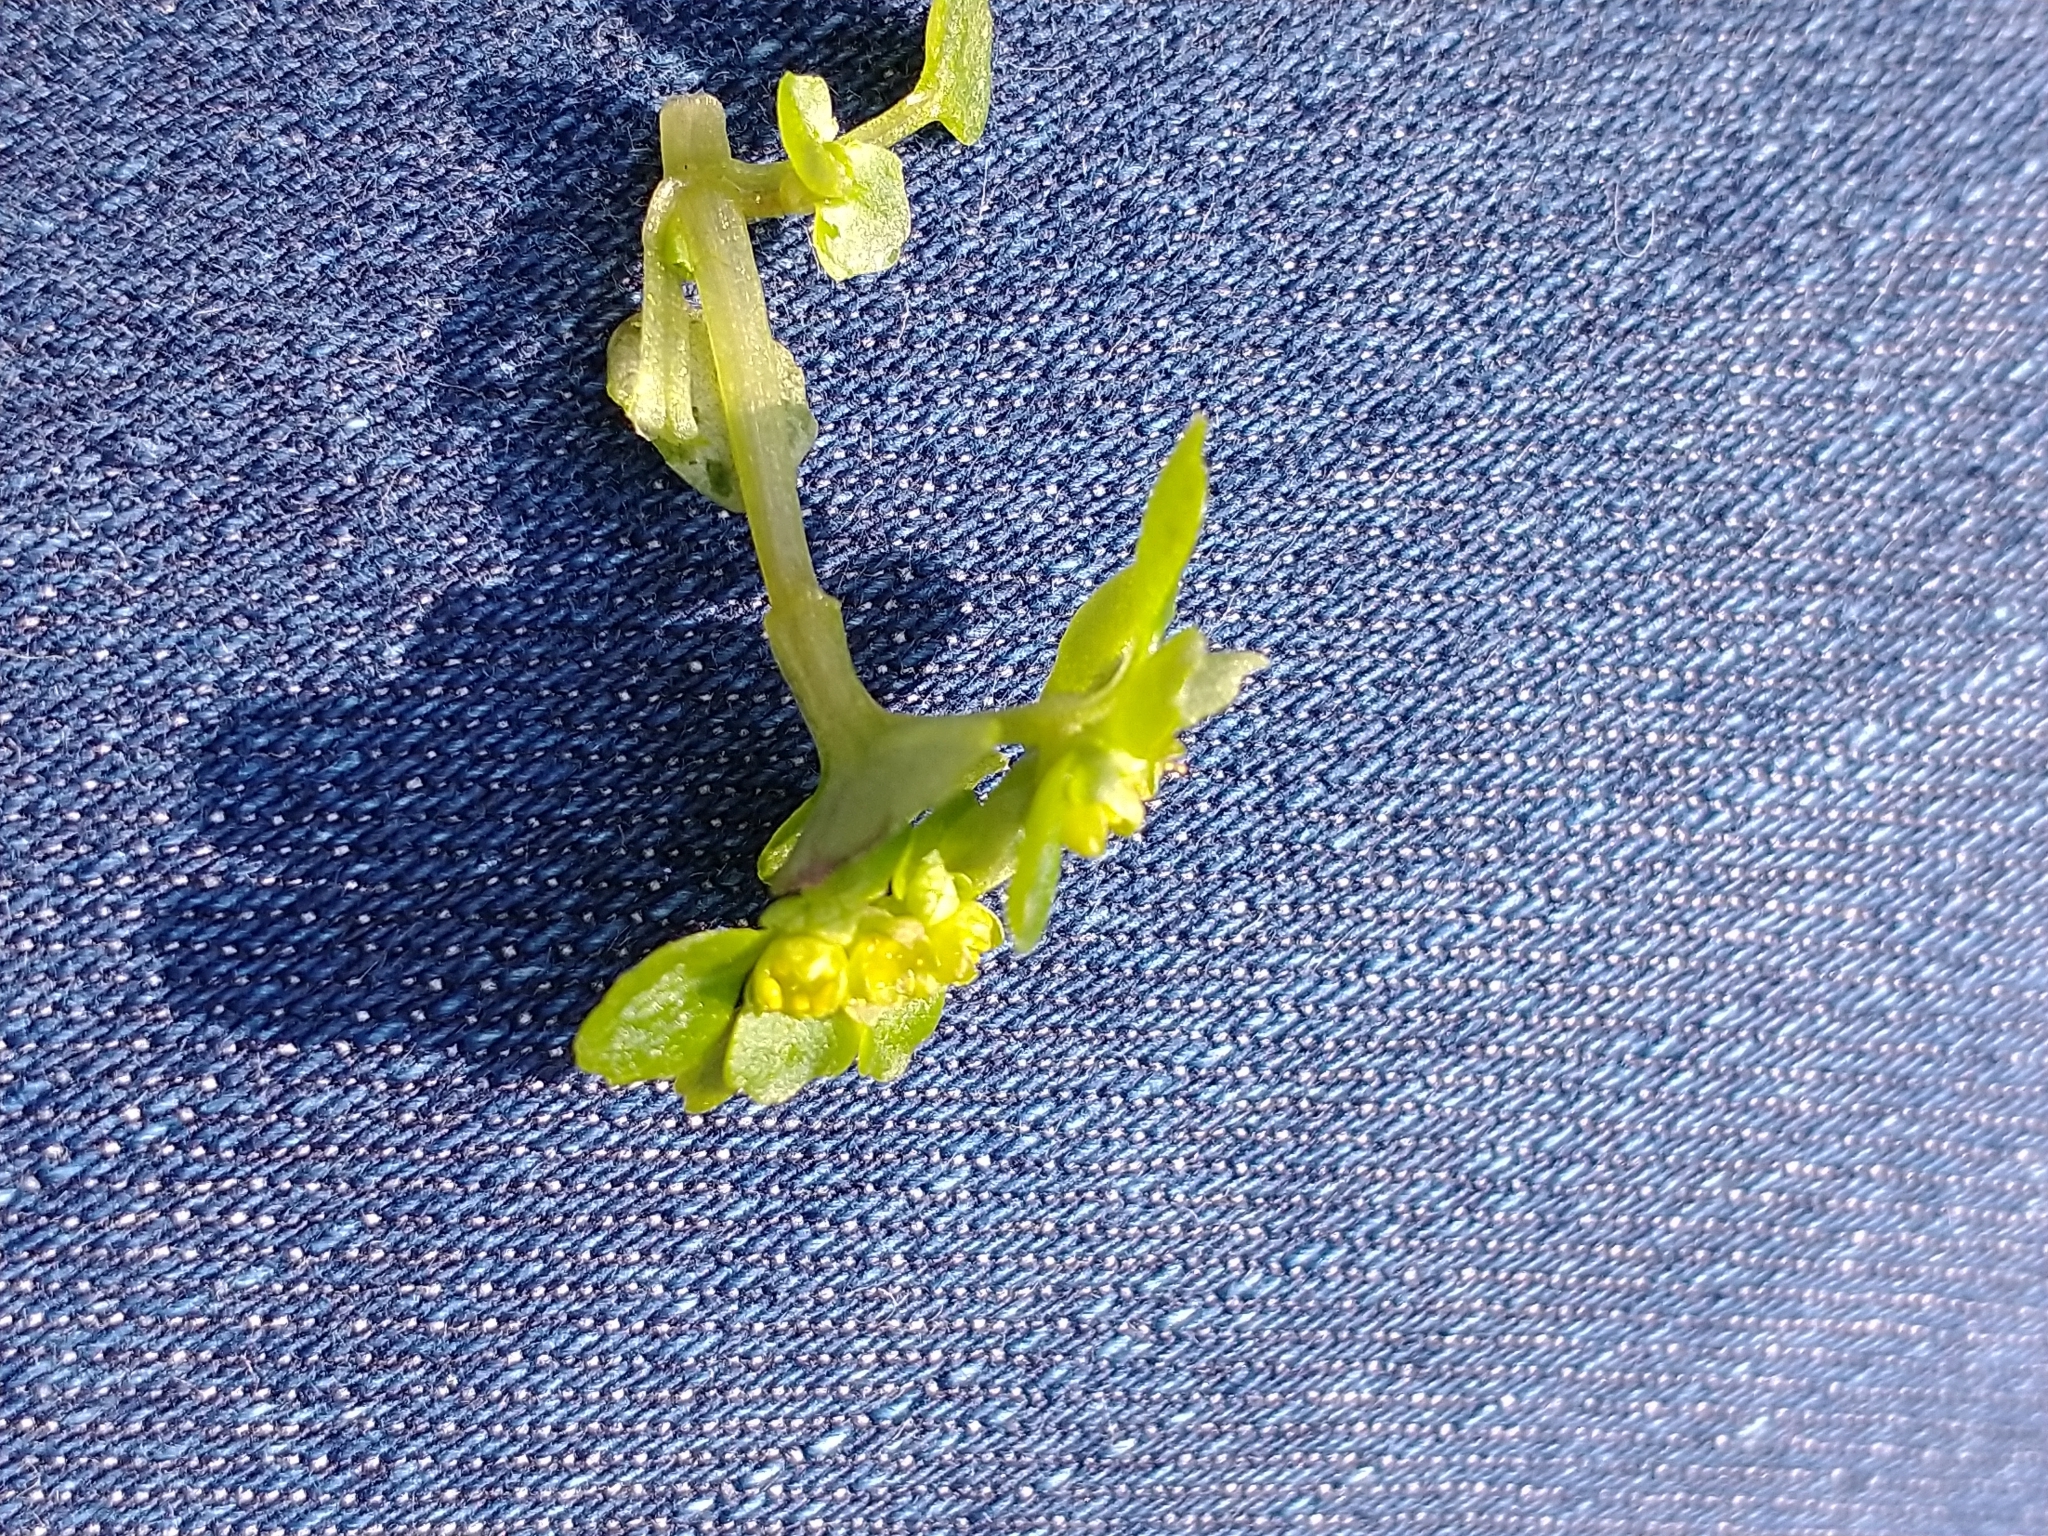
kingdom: Plantae
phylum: Tracheophyta
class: Magnoliopsida
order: Saxifragales
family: Saxifragaceae
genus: Chrysosplenium
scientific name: Chrysosplenium oppositifolium
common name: Opposite-leaved golden-saxifrage
